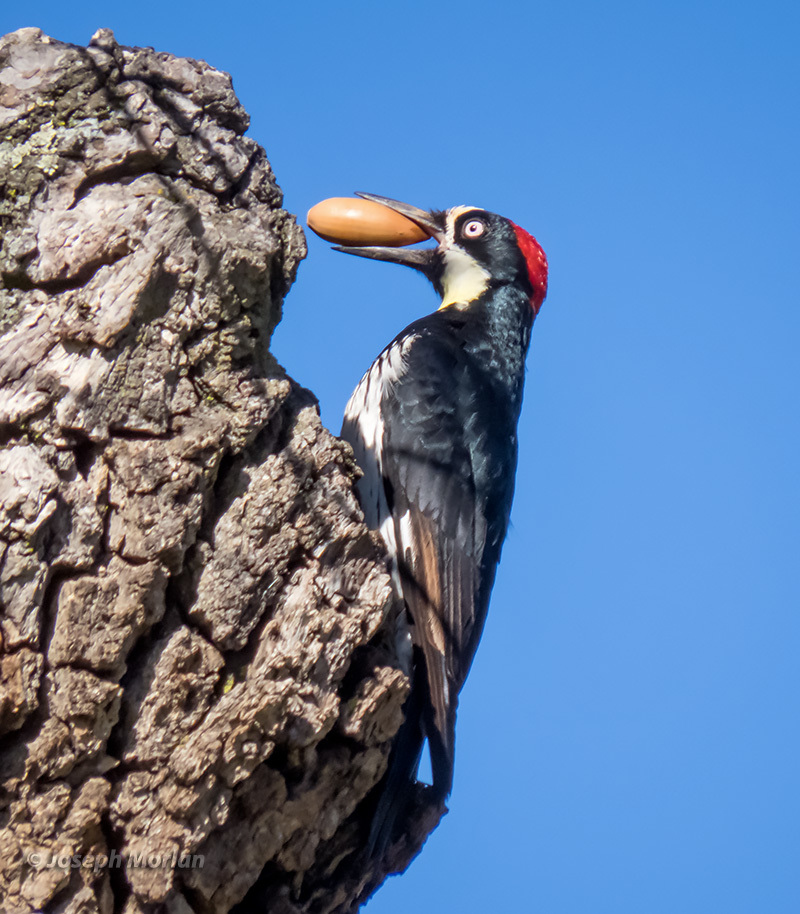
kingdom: Animalia
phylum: Chordata
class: Aves
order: Piciformes
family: Picidae
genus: Melanerpes
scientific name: Melanerpes formicivorus
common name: Acorn woodpecker
